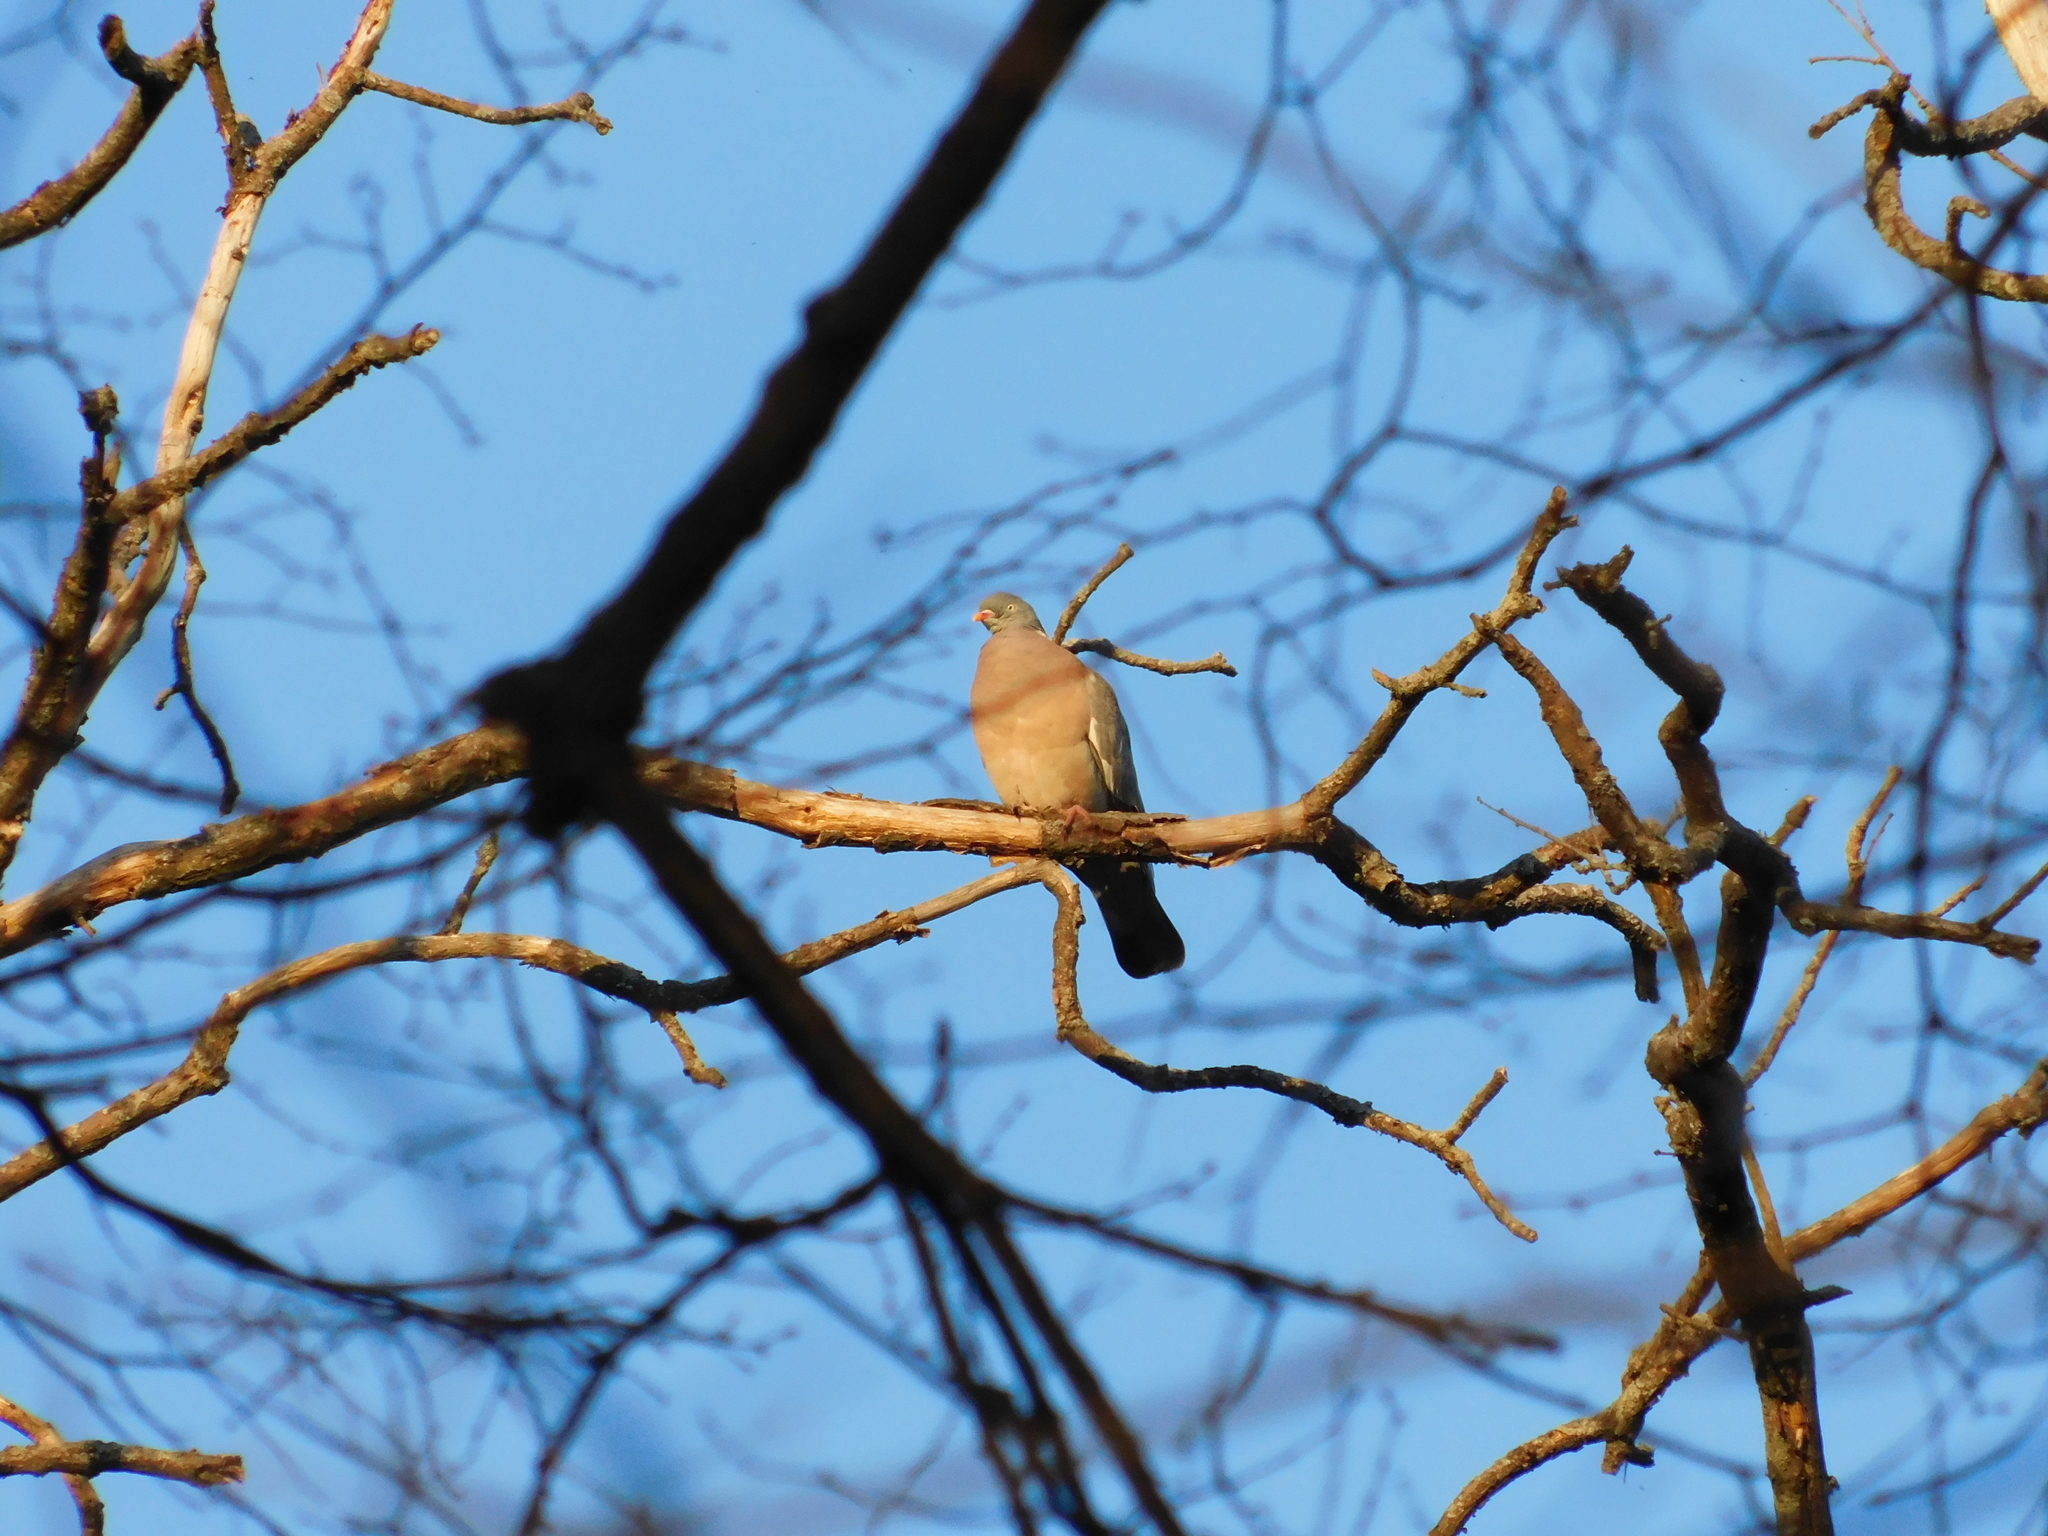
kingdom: Animalia
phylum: Chordata
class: Aves
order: Columbiformes
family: Columbidae
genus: Columba
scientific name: Columba palumbus
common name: Common wood pigeon
